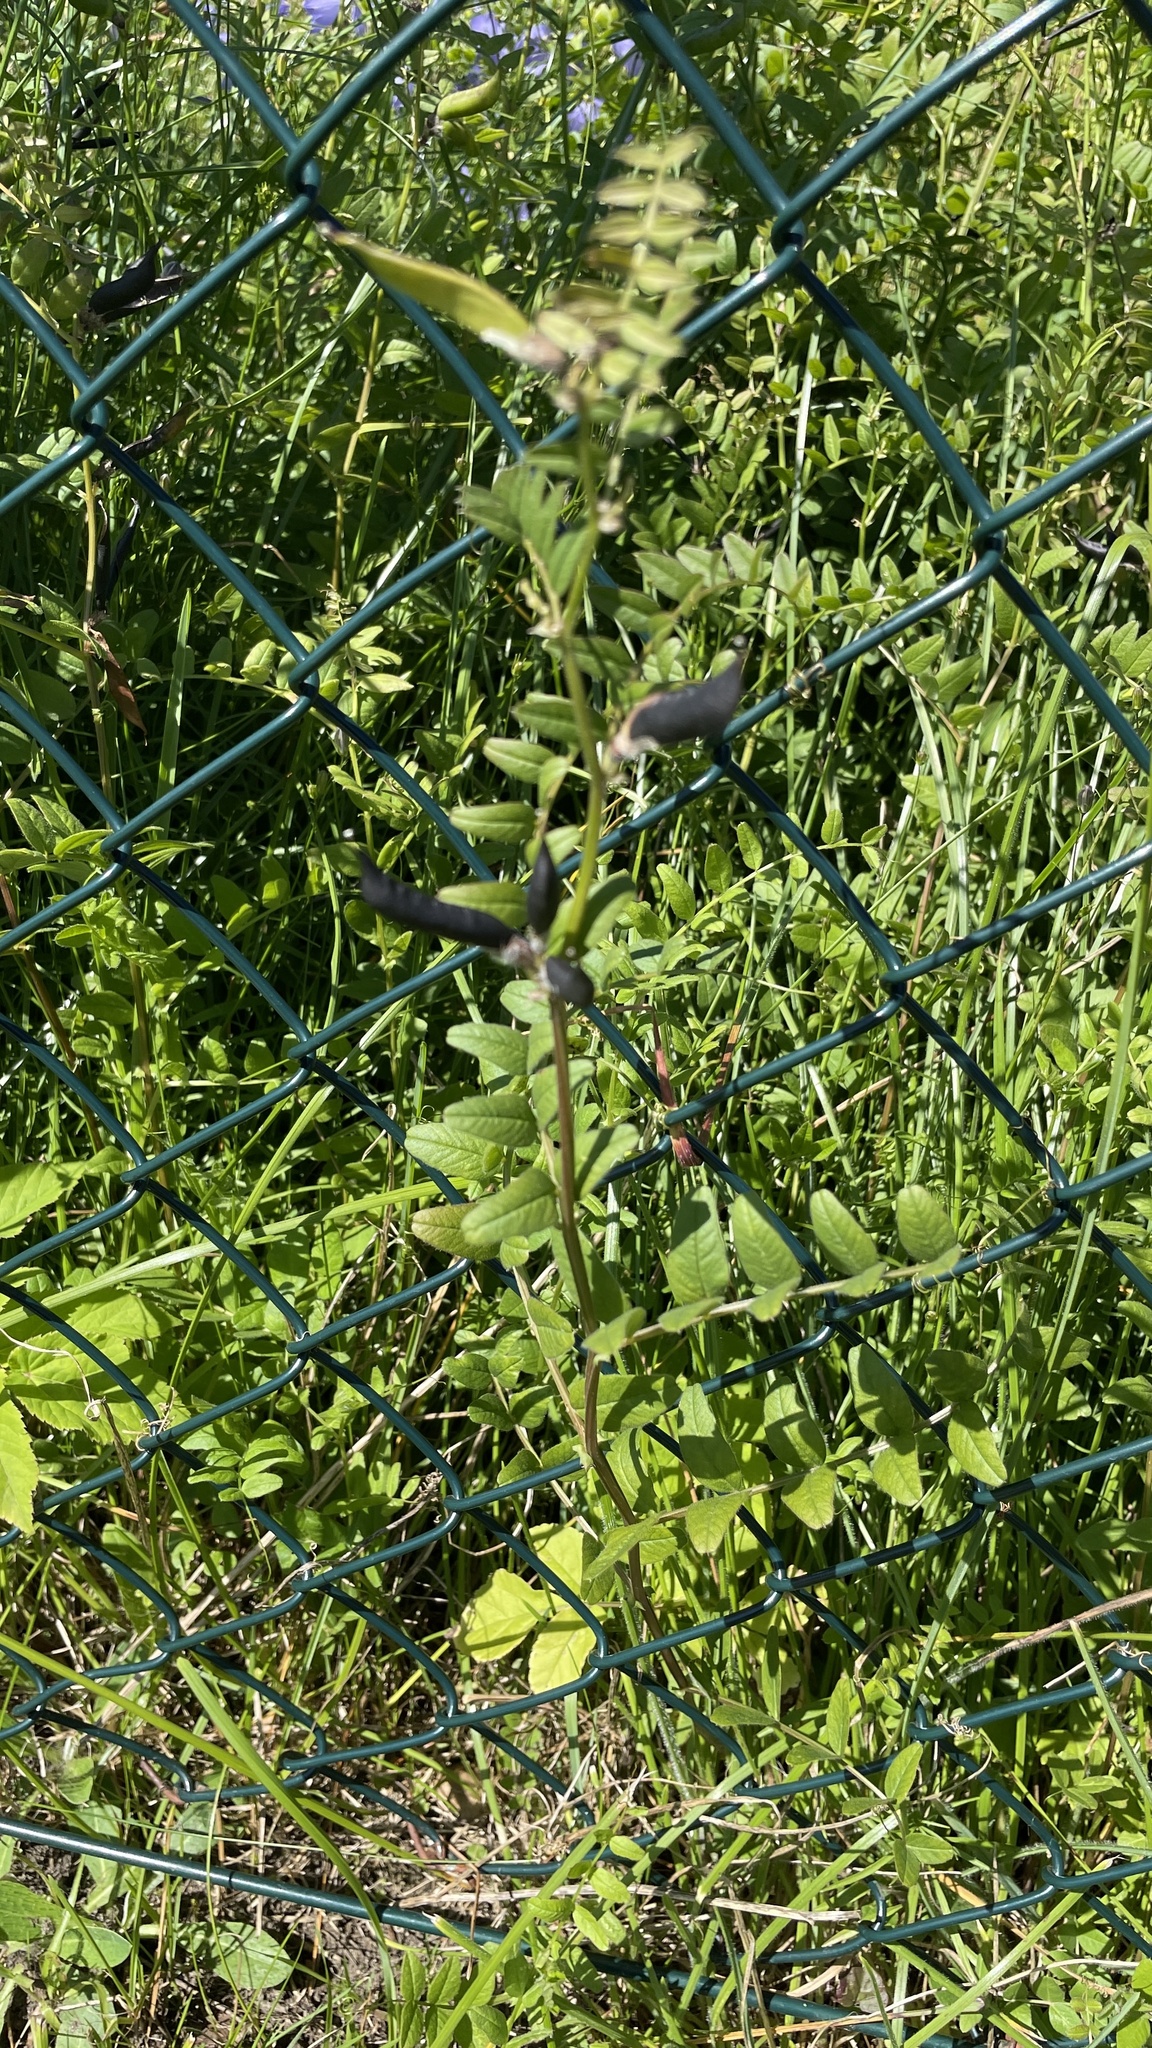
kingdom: Plantae
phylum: Tracheophyta
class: Magnoliopsida
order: Fabales
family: Fabaceae
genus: Vicia
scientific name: Vicia sepium
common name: Bush vetch
